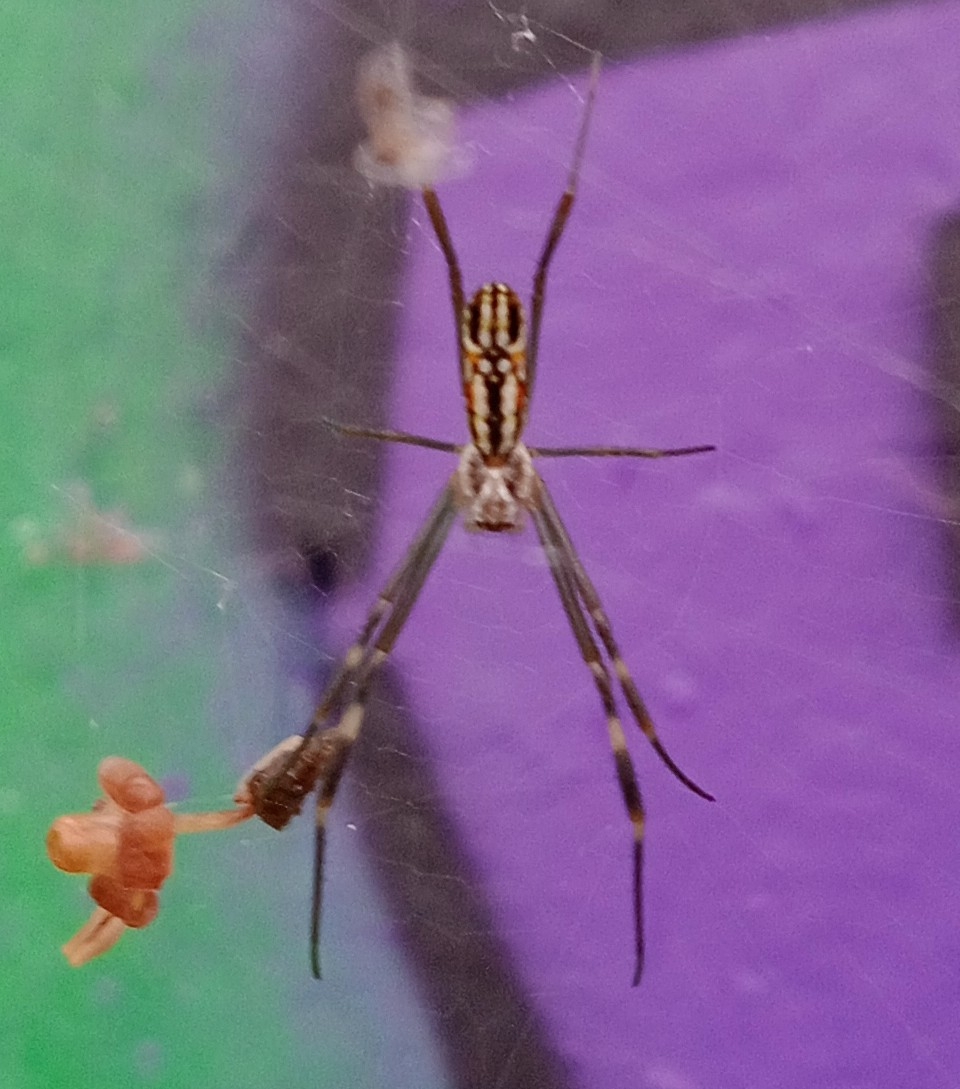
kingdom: Animalia
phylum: Arthropoda
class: Arachnida
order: Araneae
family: Araneidae
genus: Trichonephila
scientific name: Trichonephila clavipes
